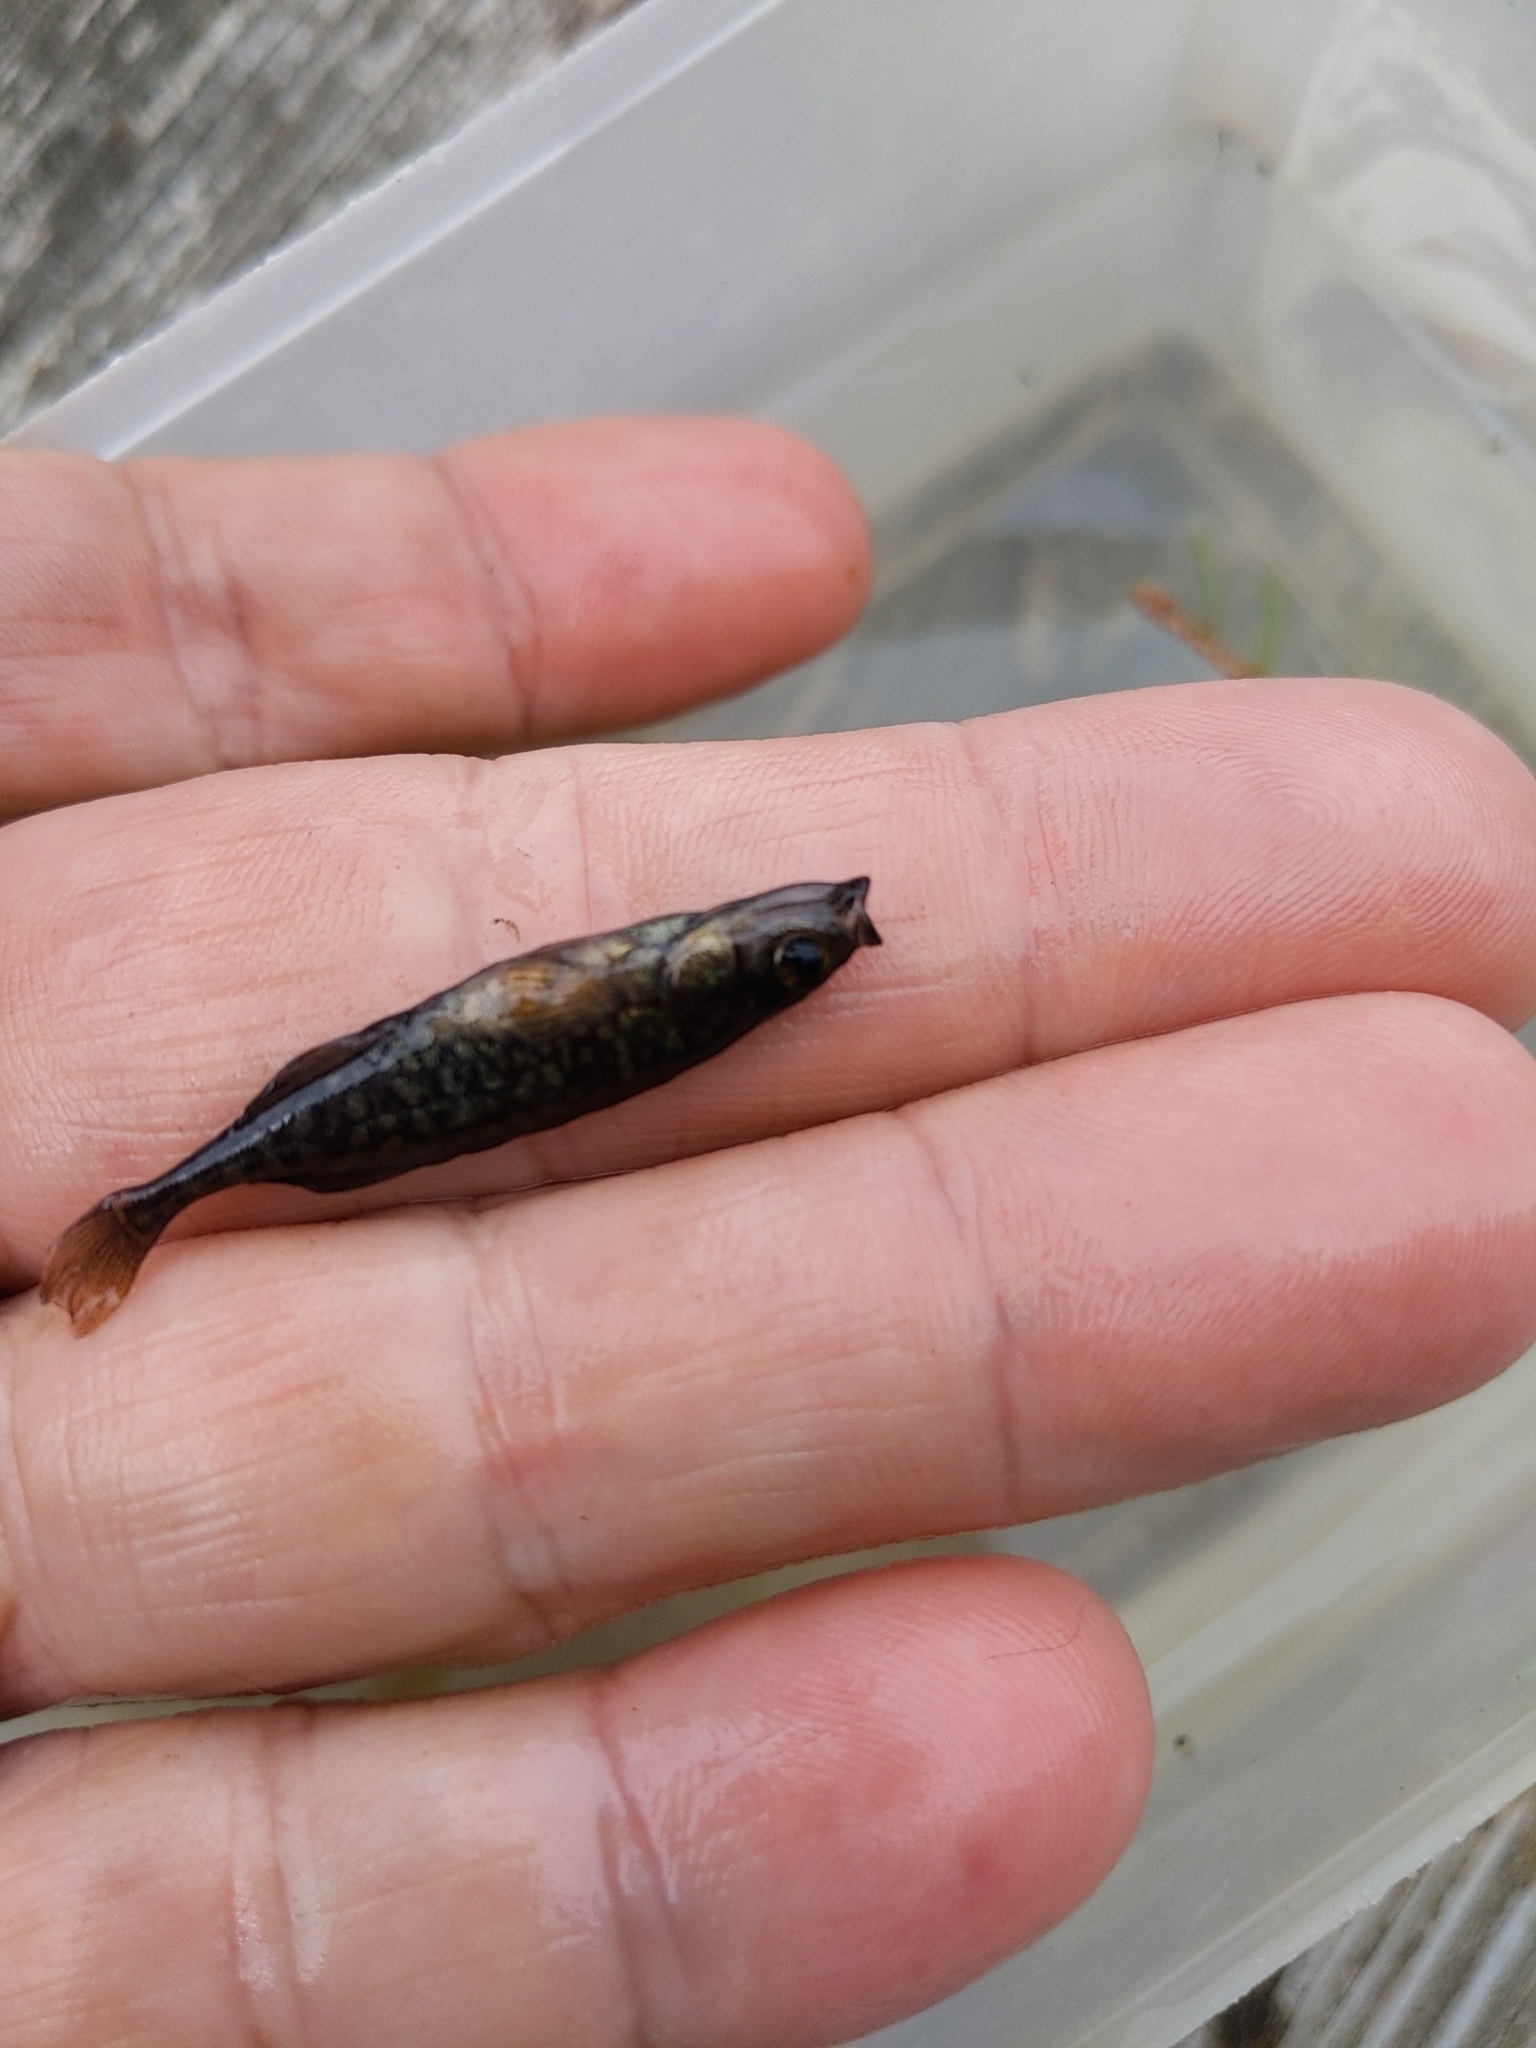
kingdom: Animalia
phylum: Chordata
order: Gasterosteiformes
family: Gasterosteidae
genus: Culaea
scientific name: Culaea inconstans
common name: Brook stickleback
